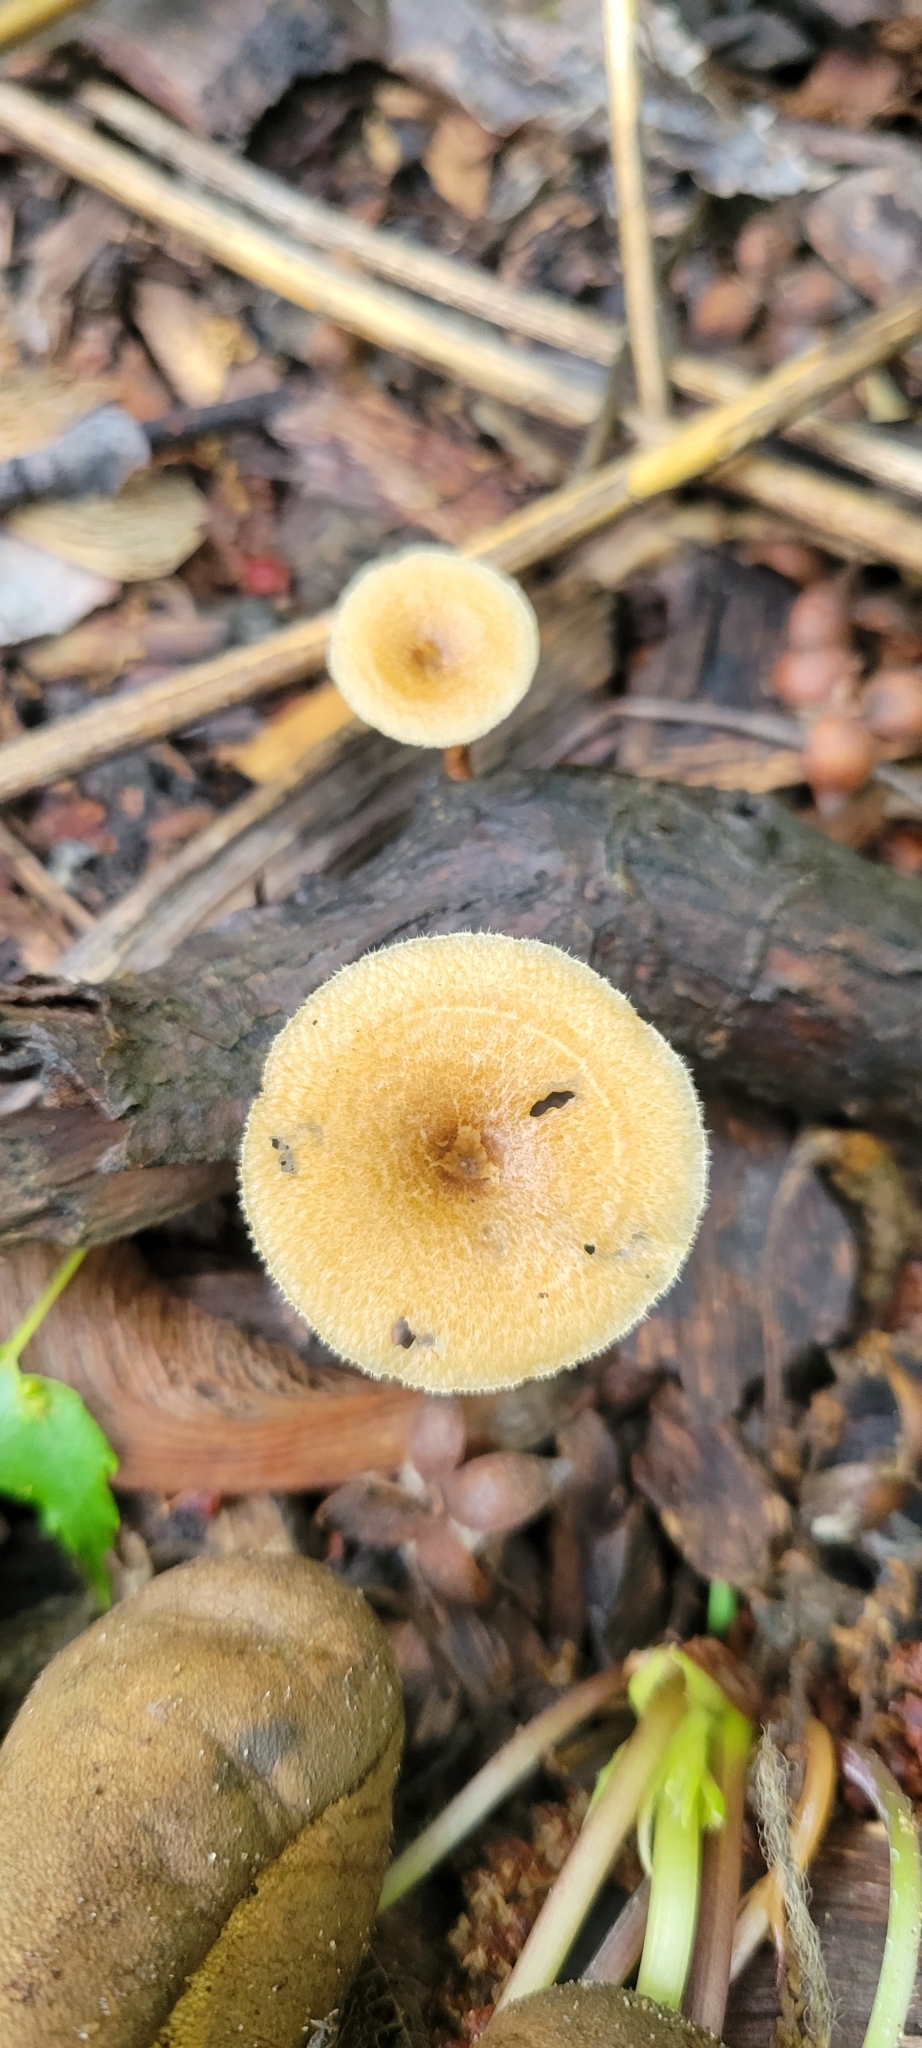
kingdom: Fungi
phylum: Basidiomycota
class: Agaricomycetes
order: Polyporales
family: Polyporaceae
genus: Lentinus
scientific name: Lentinus arcularius
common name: Spring polypore
